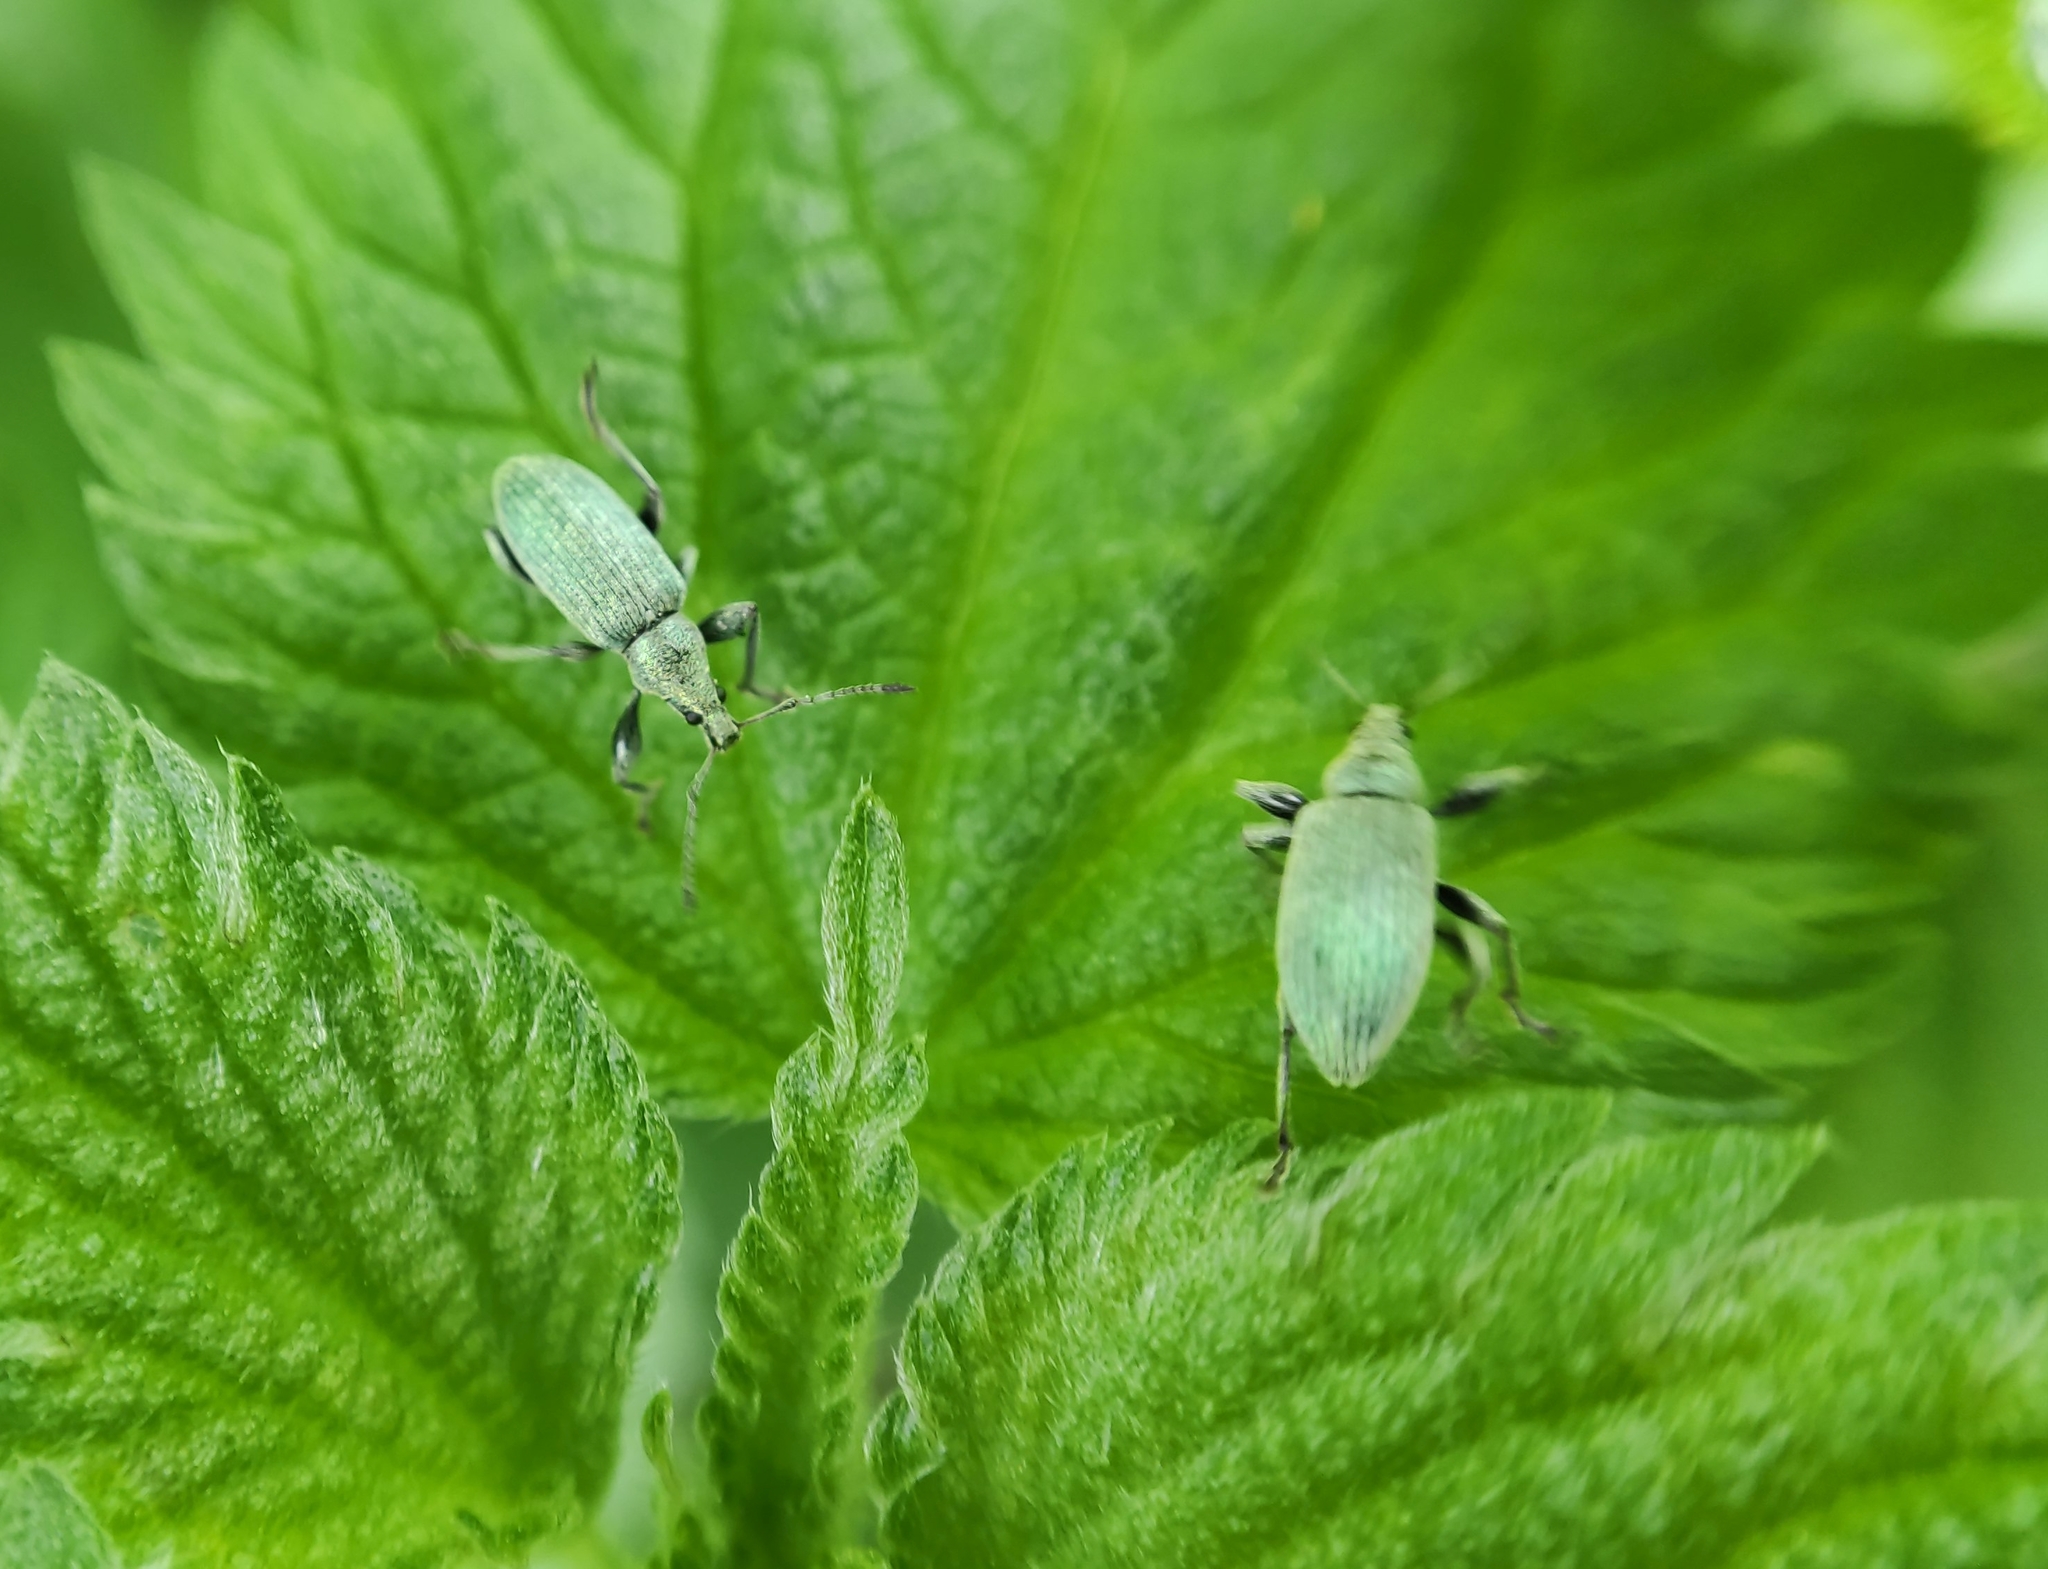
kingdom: Animalia
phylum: Arthropoda
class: Insecta
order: Coleoptera
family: Curculionidae
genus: Phyllobius
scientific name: Phyllobius pomaceus
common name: Green nettle weevil
